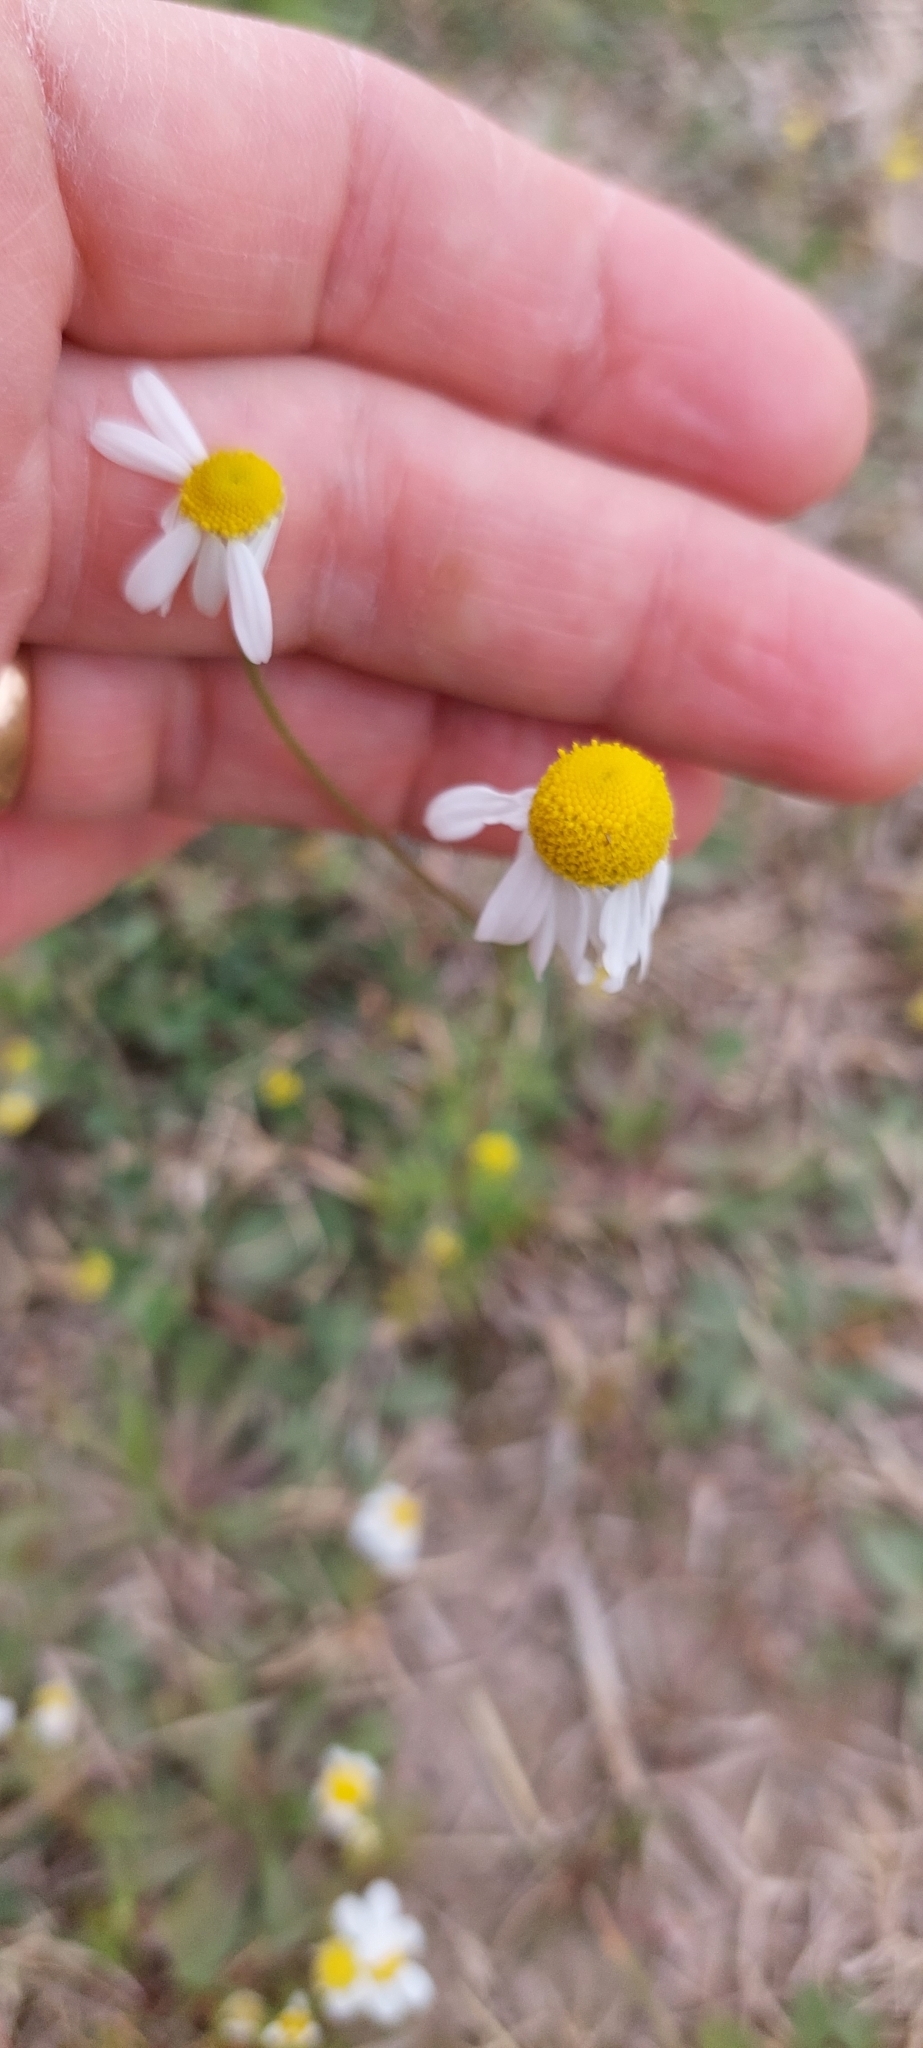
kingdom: Plantae
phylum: Tracheophyta
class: Magnoliopsida
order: Asterales
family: Asteraceae
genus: Matricaria
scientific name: Matricaria chamomilla
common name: Scented mayweed
